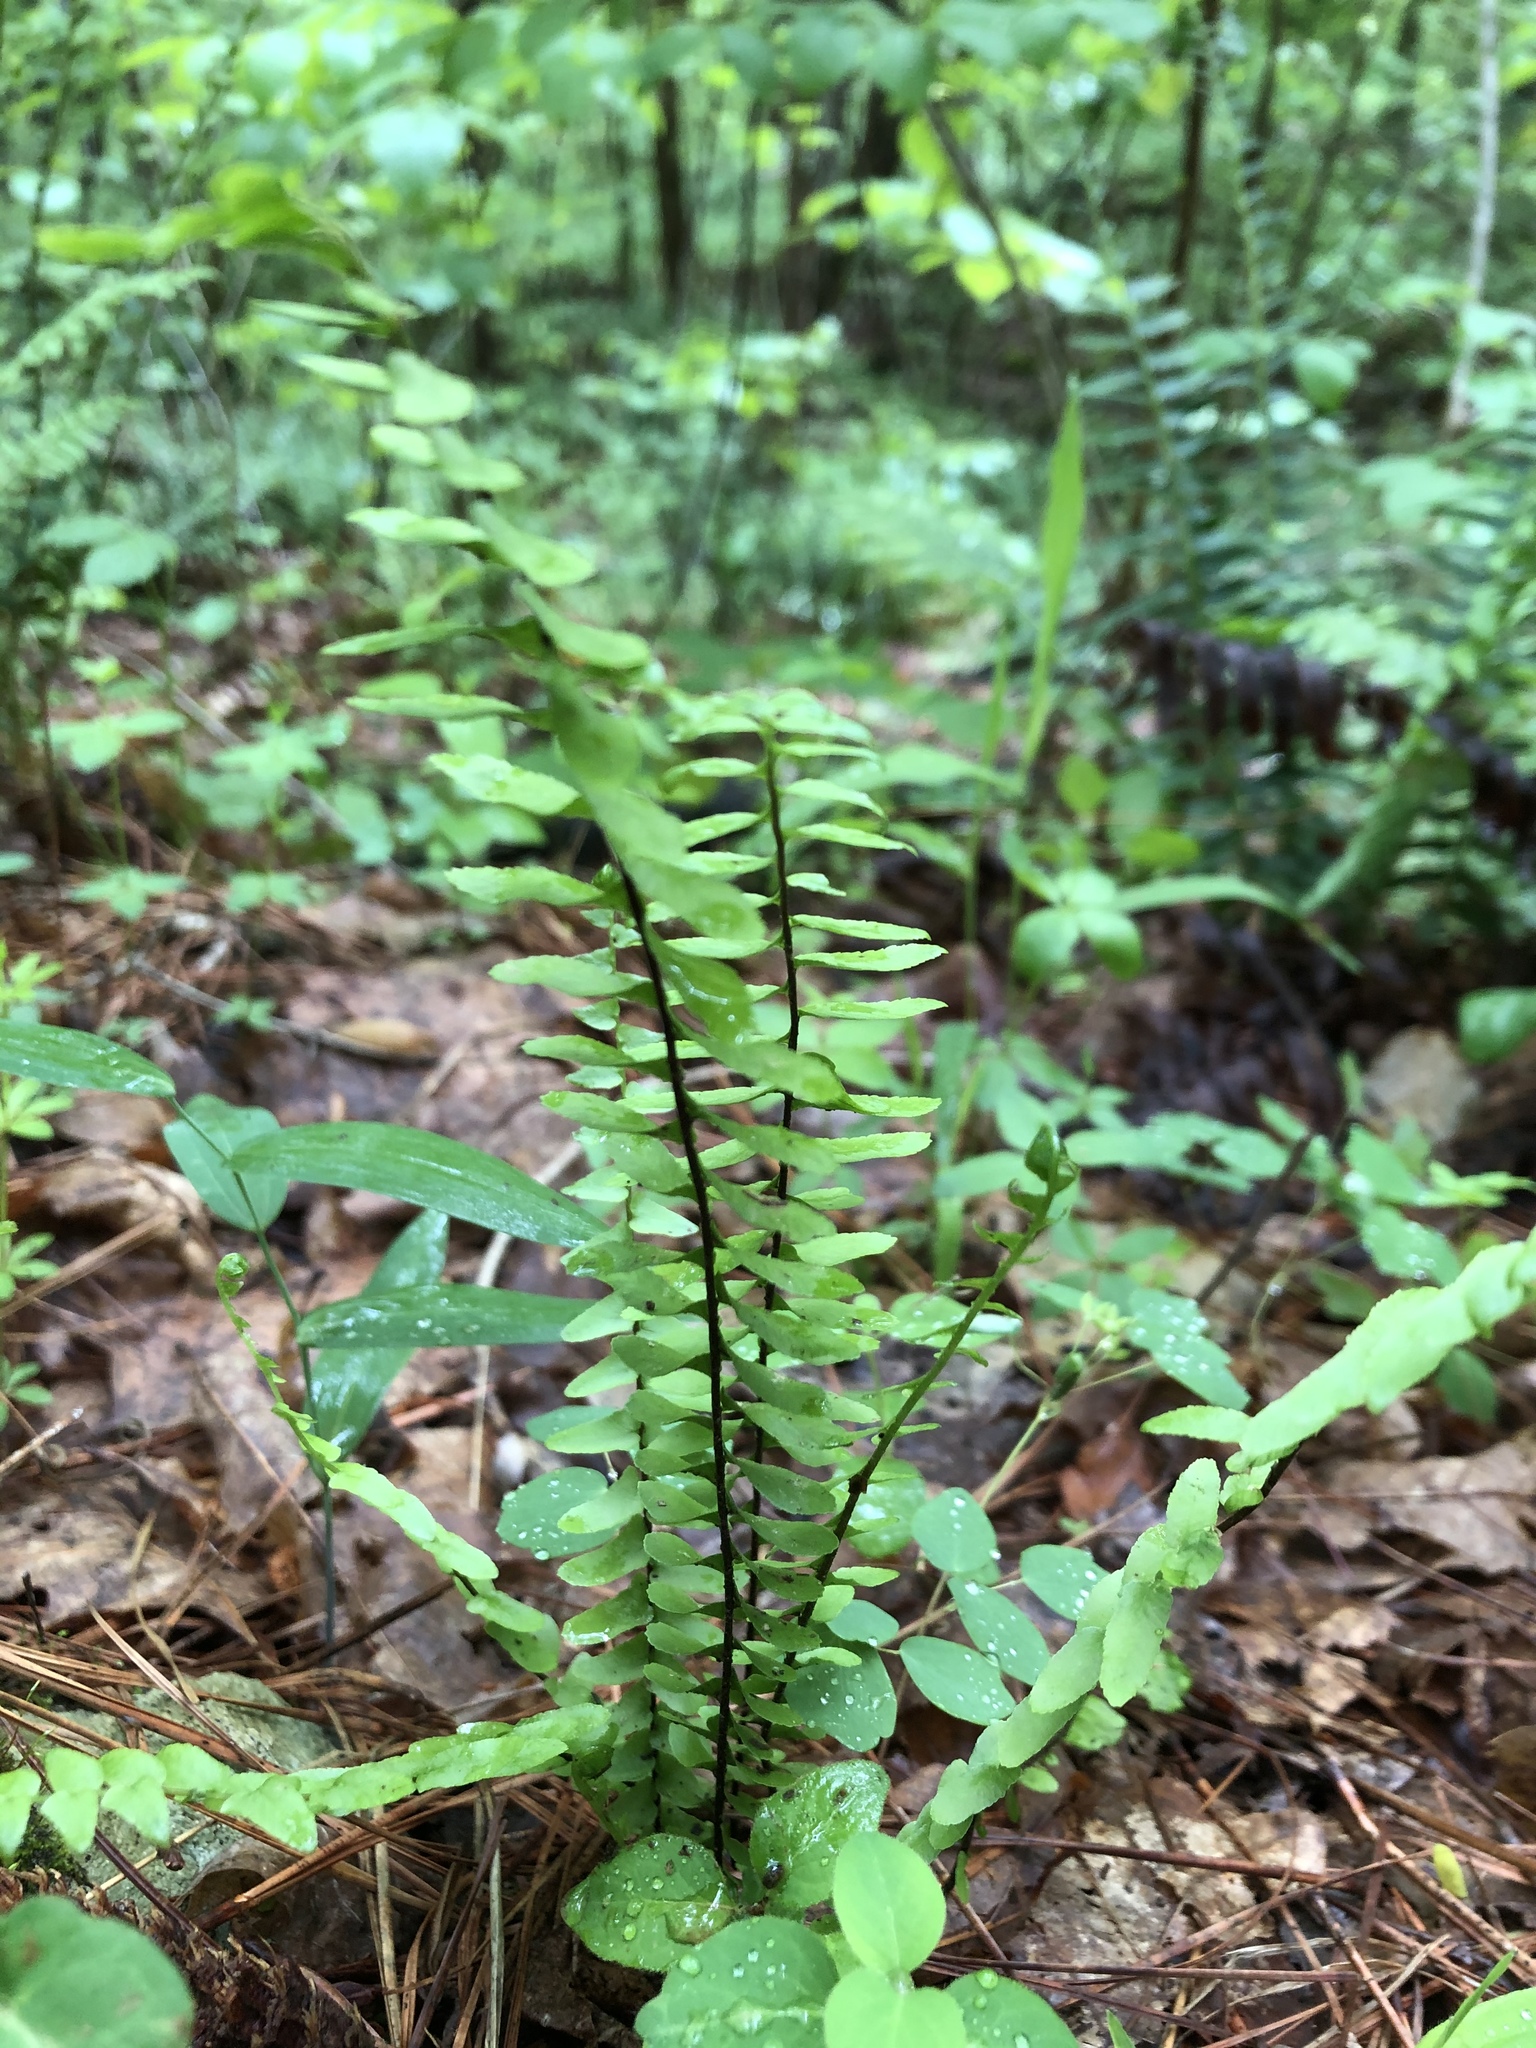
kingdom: Plantae
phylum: Tracheophyta
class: Polypodiopsida
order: Polypodiales
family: Aspleniaceae
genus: Asplenium
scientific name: Asplenium platyneuron
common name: Ebony spleenwort
